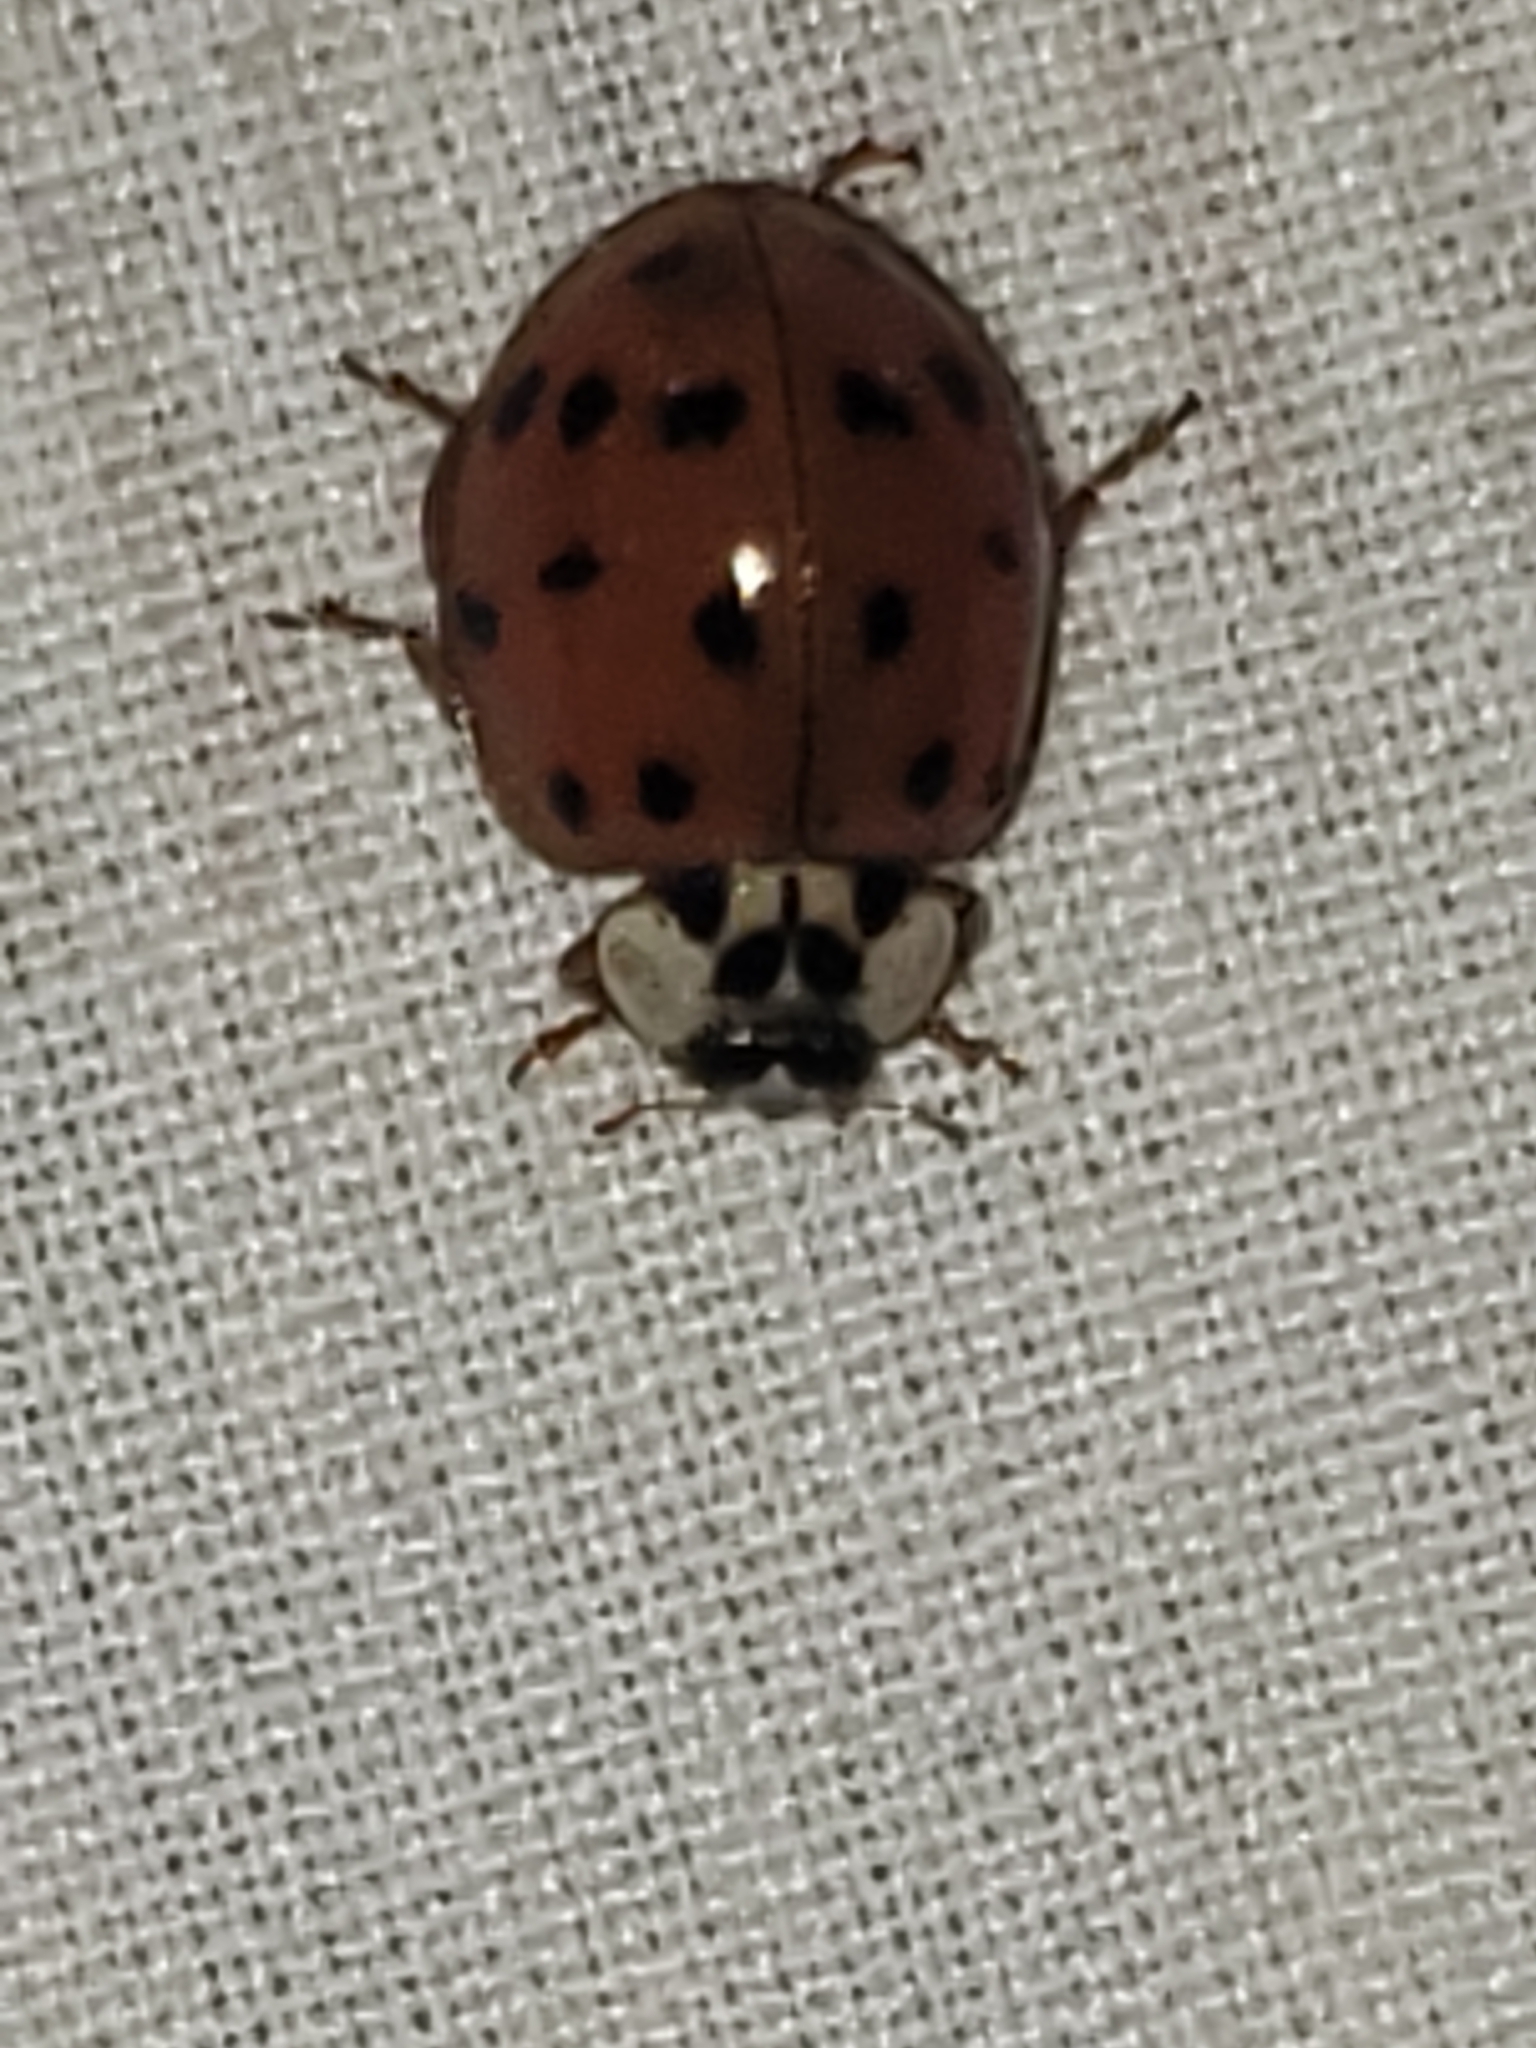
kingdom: Animalia
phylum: Arthropoda
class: Insecta
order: Coleoptera
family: Coccinellidae
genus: Harmonia
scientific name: Harmonia axyridis
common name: Harlequin ladybird
